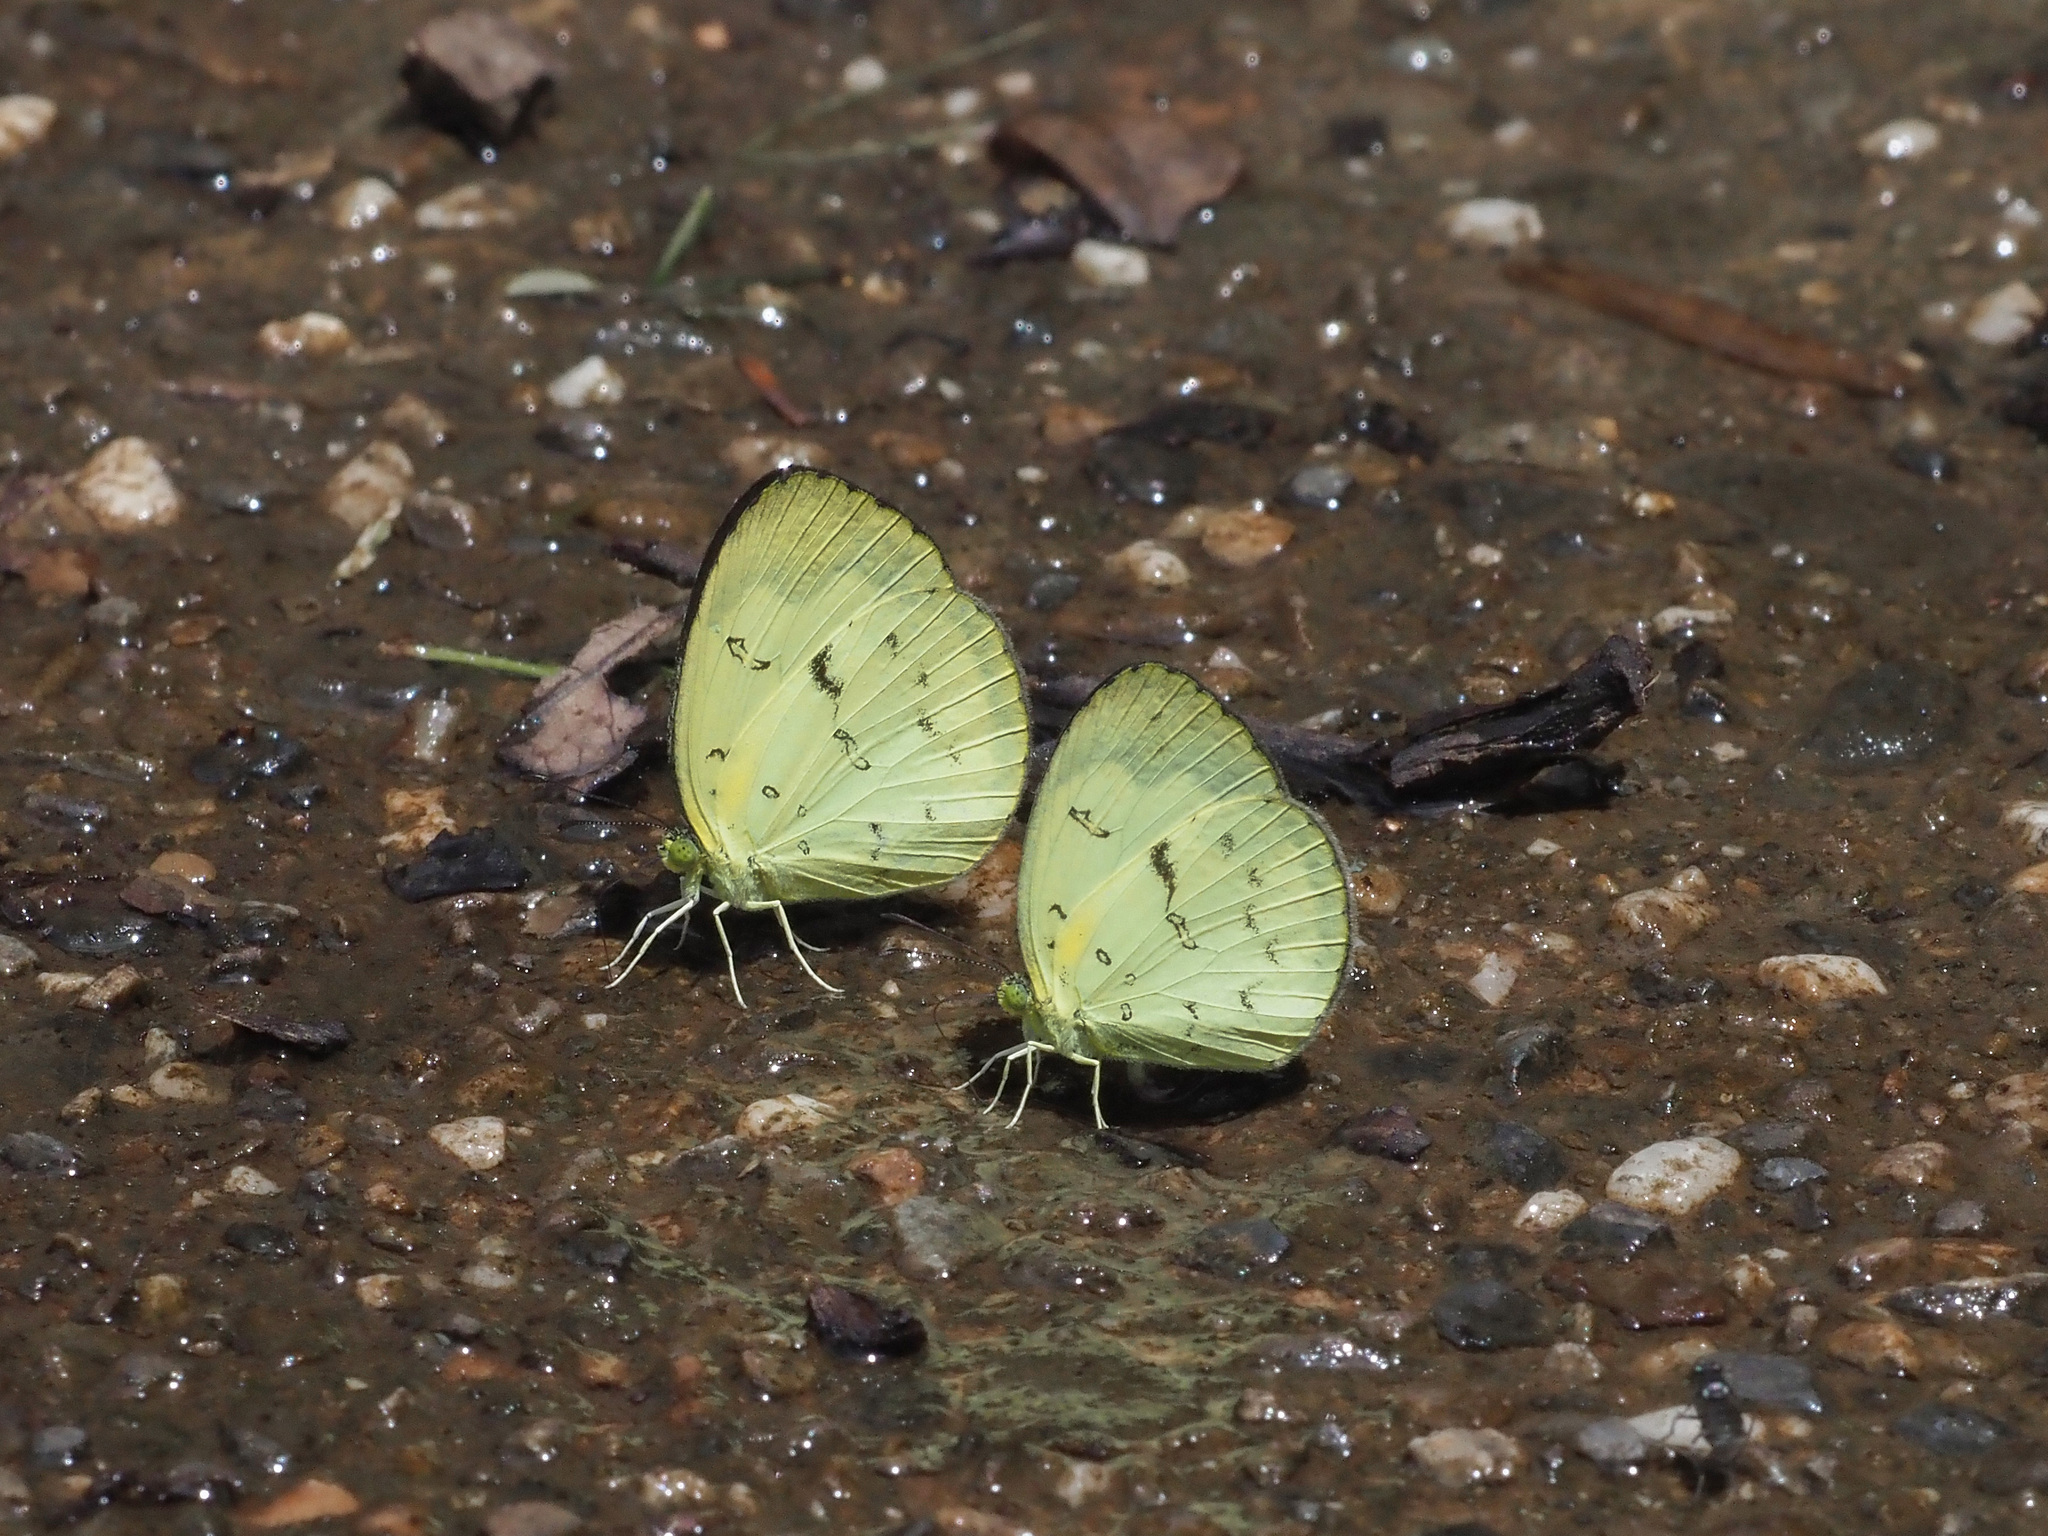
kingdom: Animalia
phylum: Arthropoda
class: Insecta
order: Lepidoptera
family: Pieridae
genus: Eurema
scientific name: Eurema ada
